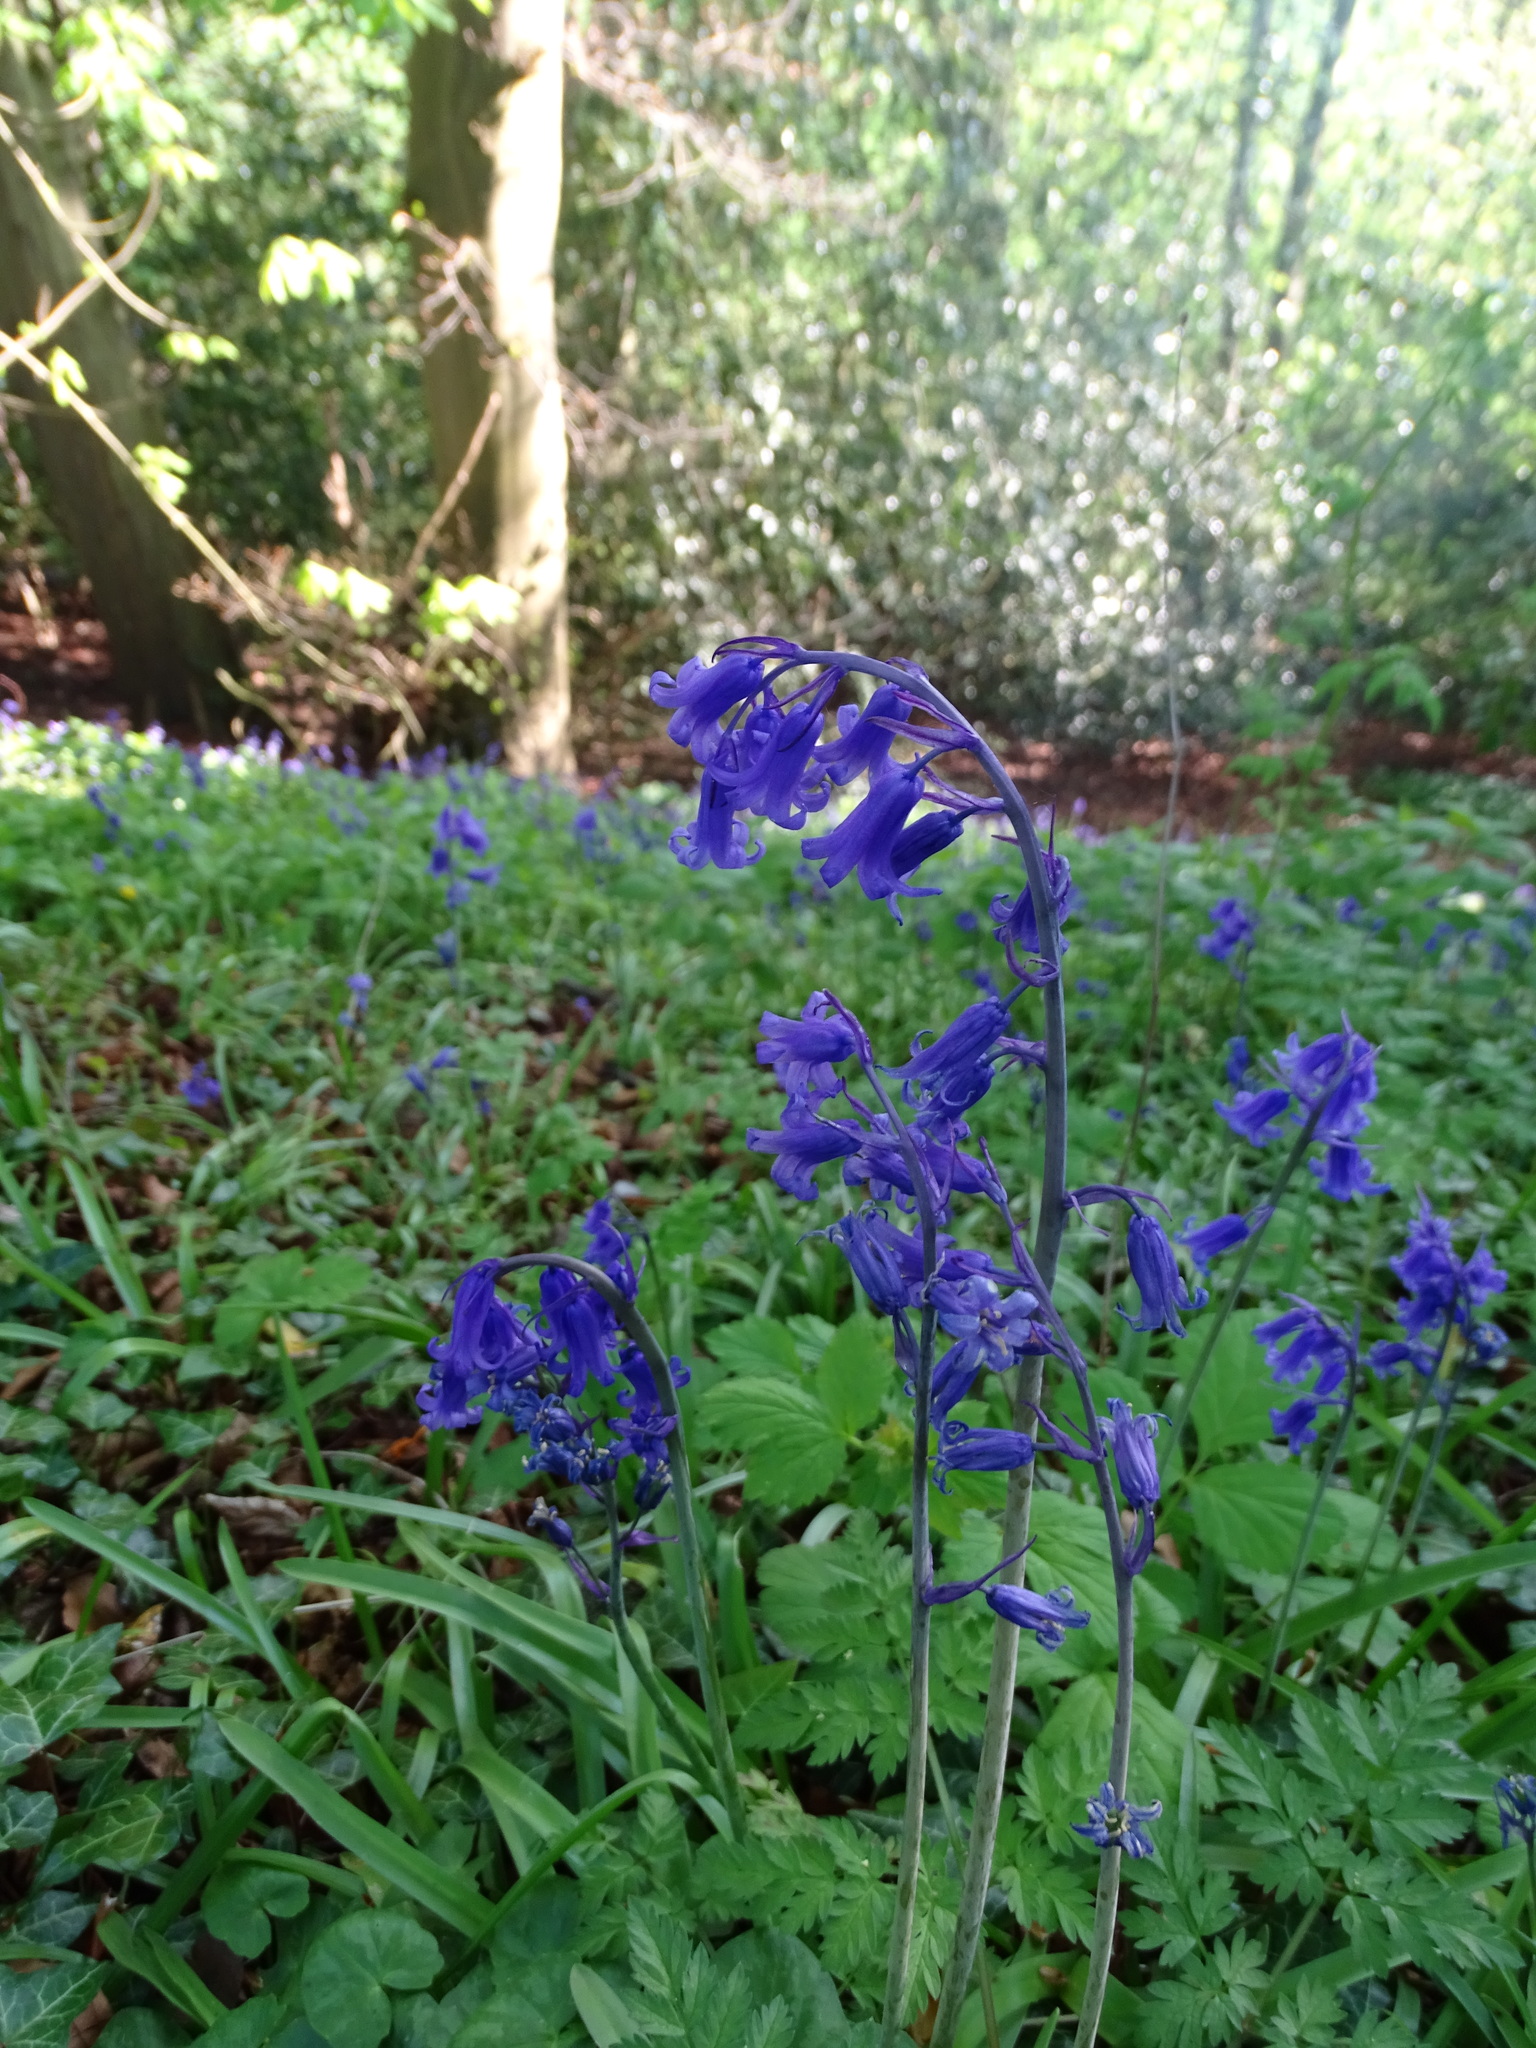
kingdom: Plantae
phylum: Tracheophyta
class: Liliopsida
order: Asparagales
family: Asparagaceae
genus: Hyacinthoides
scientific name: Hyacinthoides non-scripta
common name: Bluebell
